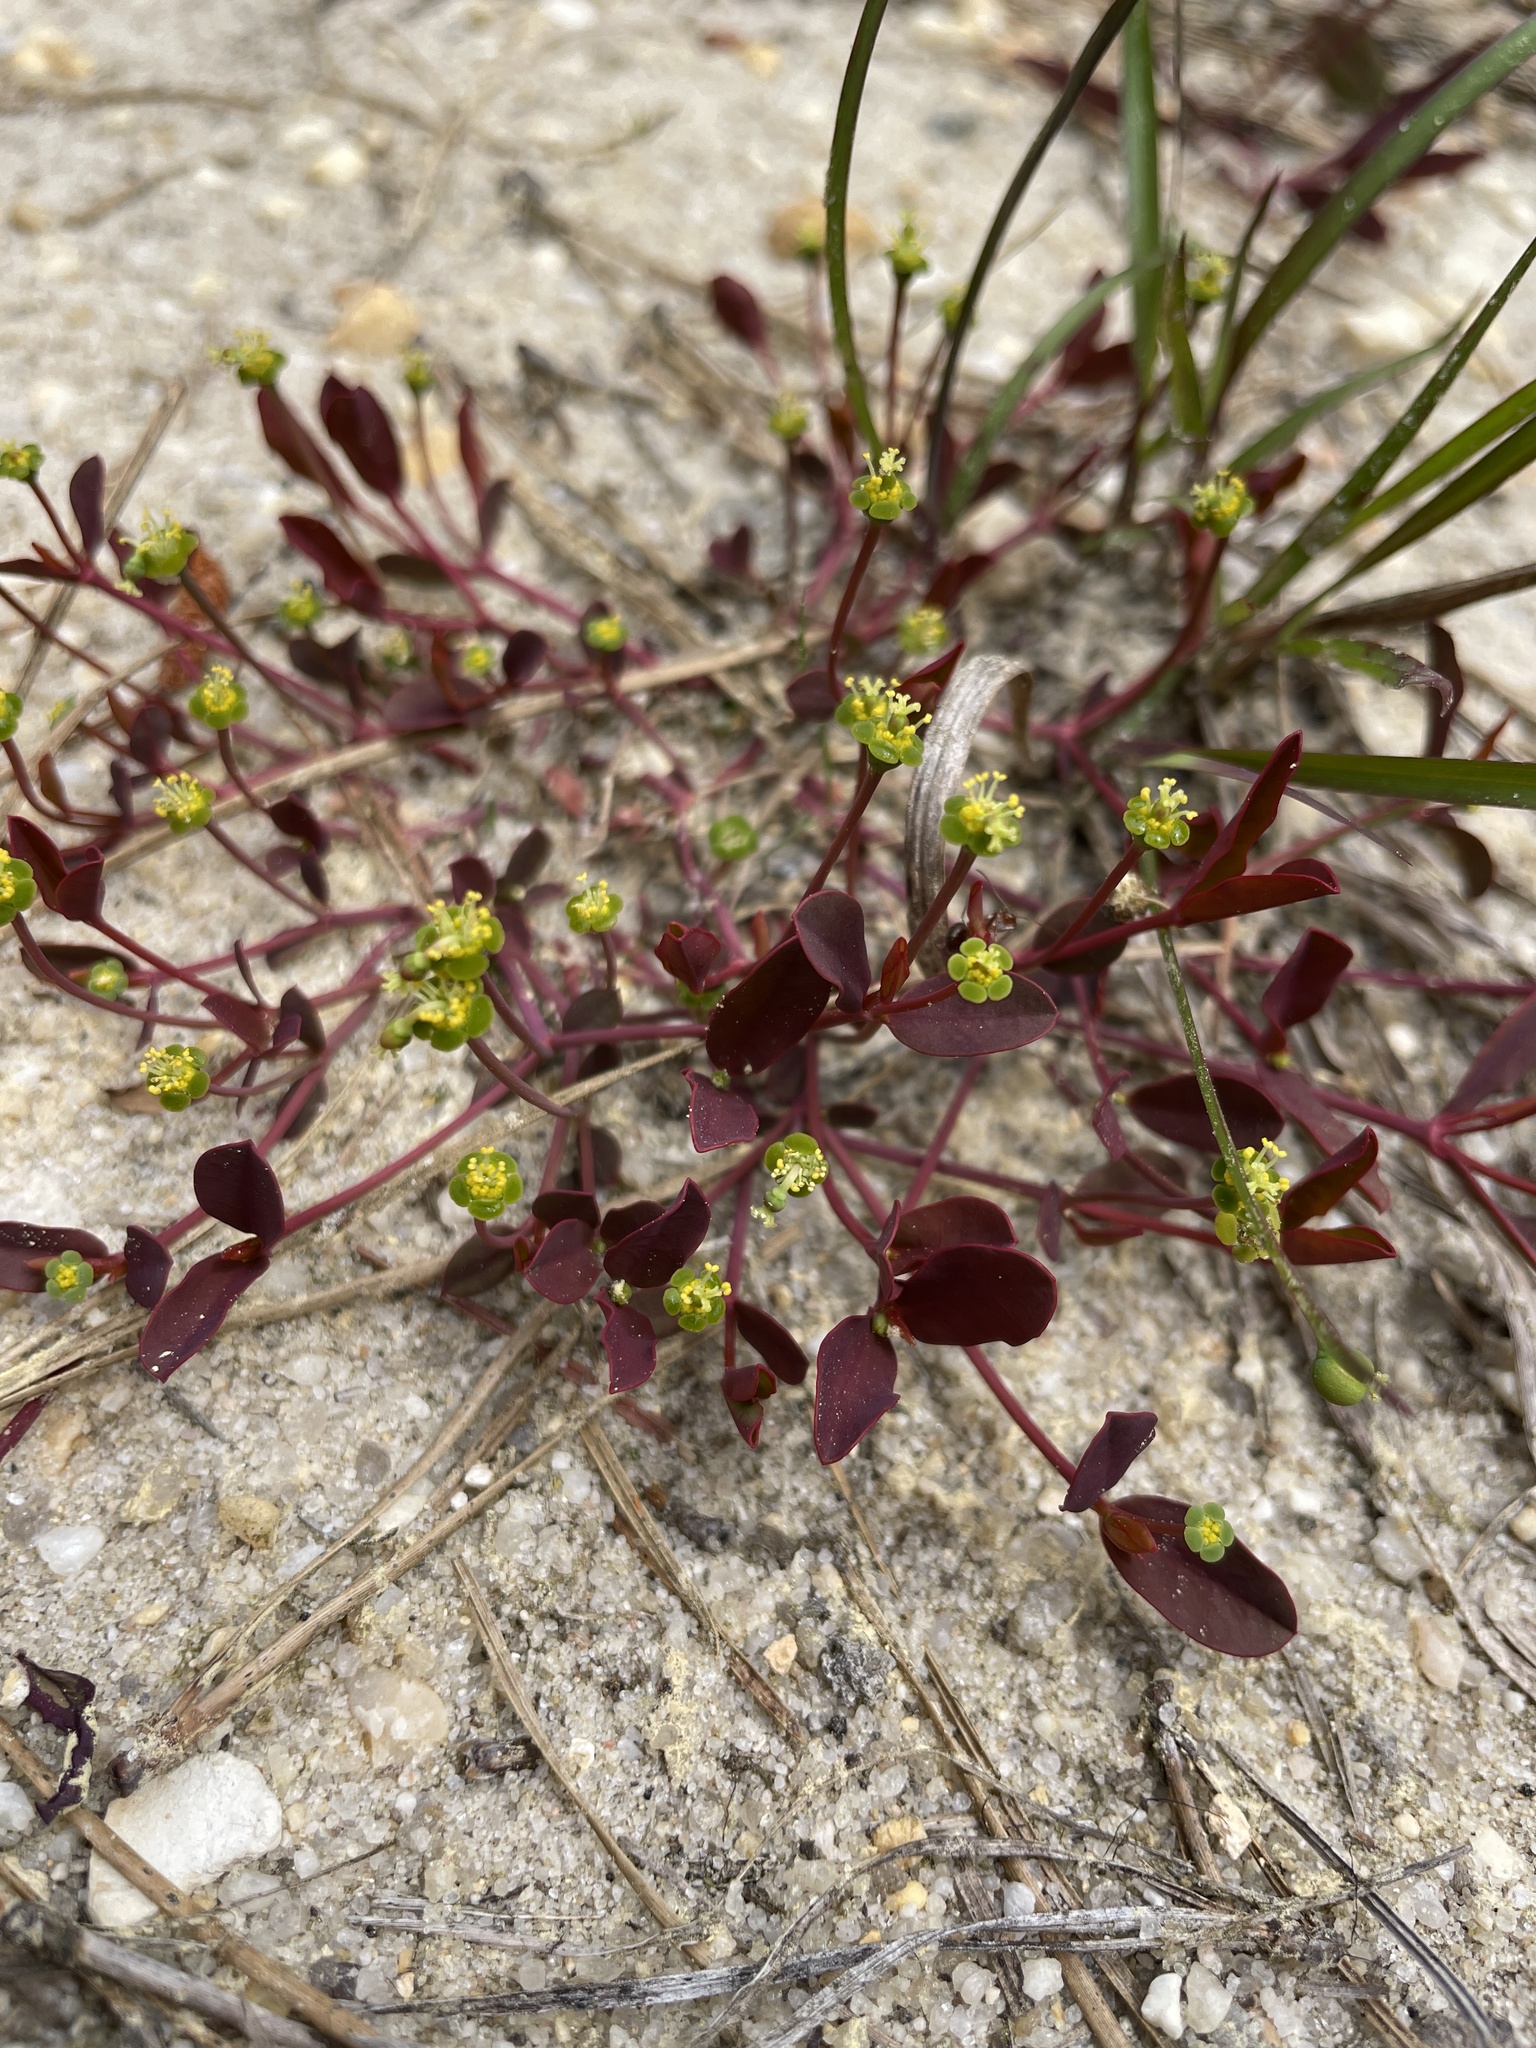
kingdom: Plantae
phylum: Tracheophyta
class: Magnoliopsida
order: Malpighiales
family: Euphorbiaceae
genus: Euphorbia
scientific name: Euphorbia ipecacuanhae
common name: Carolina ipecac
